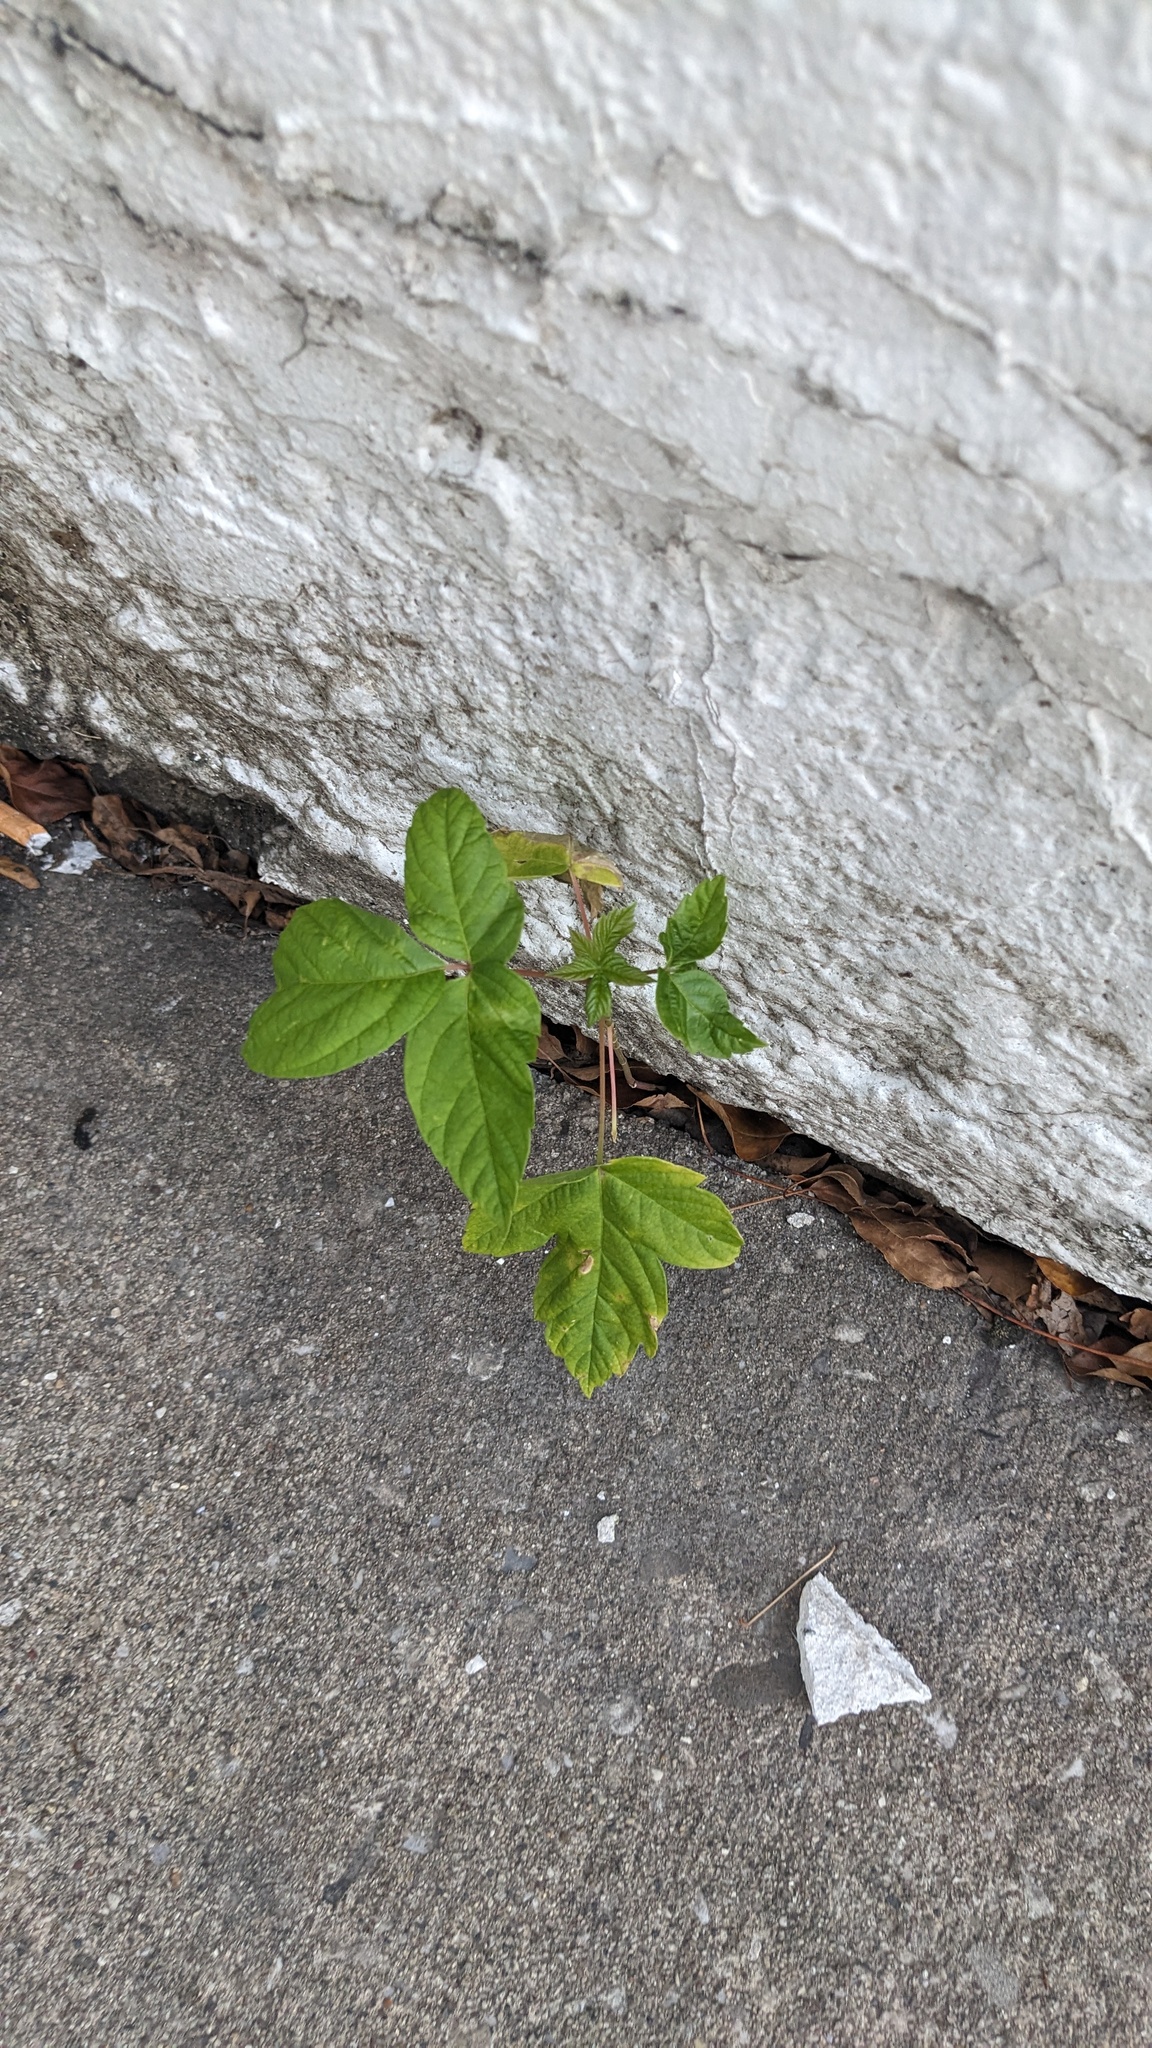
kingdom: Plantae
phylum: Tracheophyta
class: Magnoliopsida
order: Sapindales
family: Sapindaceae
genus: Acer
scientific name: Acer negundo
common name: Ashleaf maple
